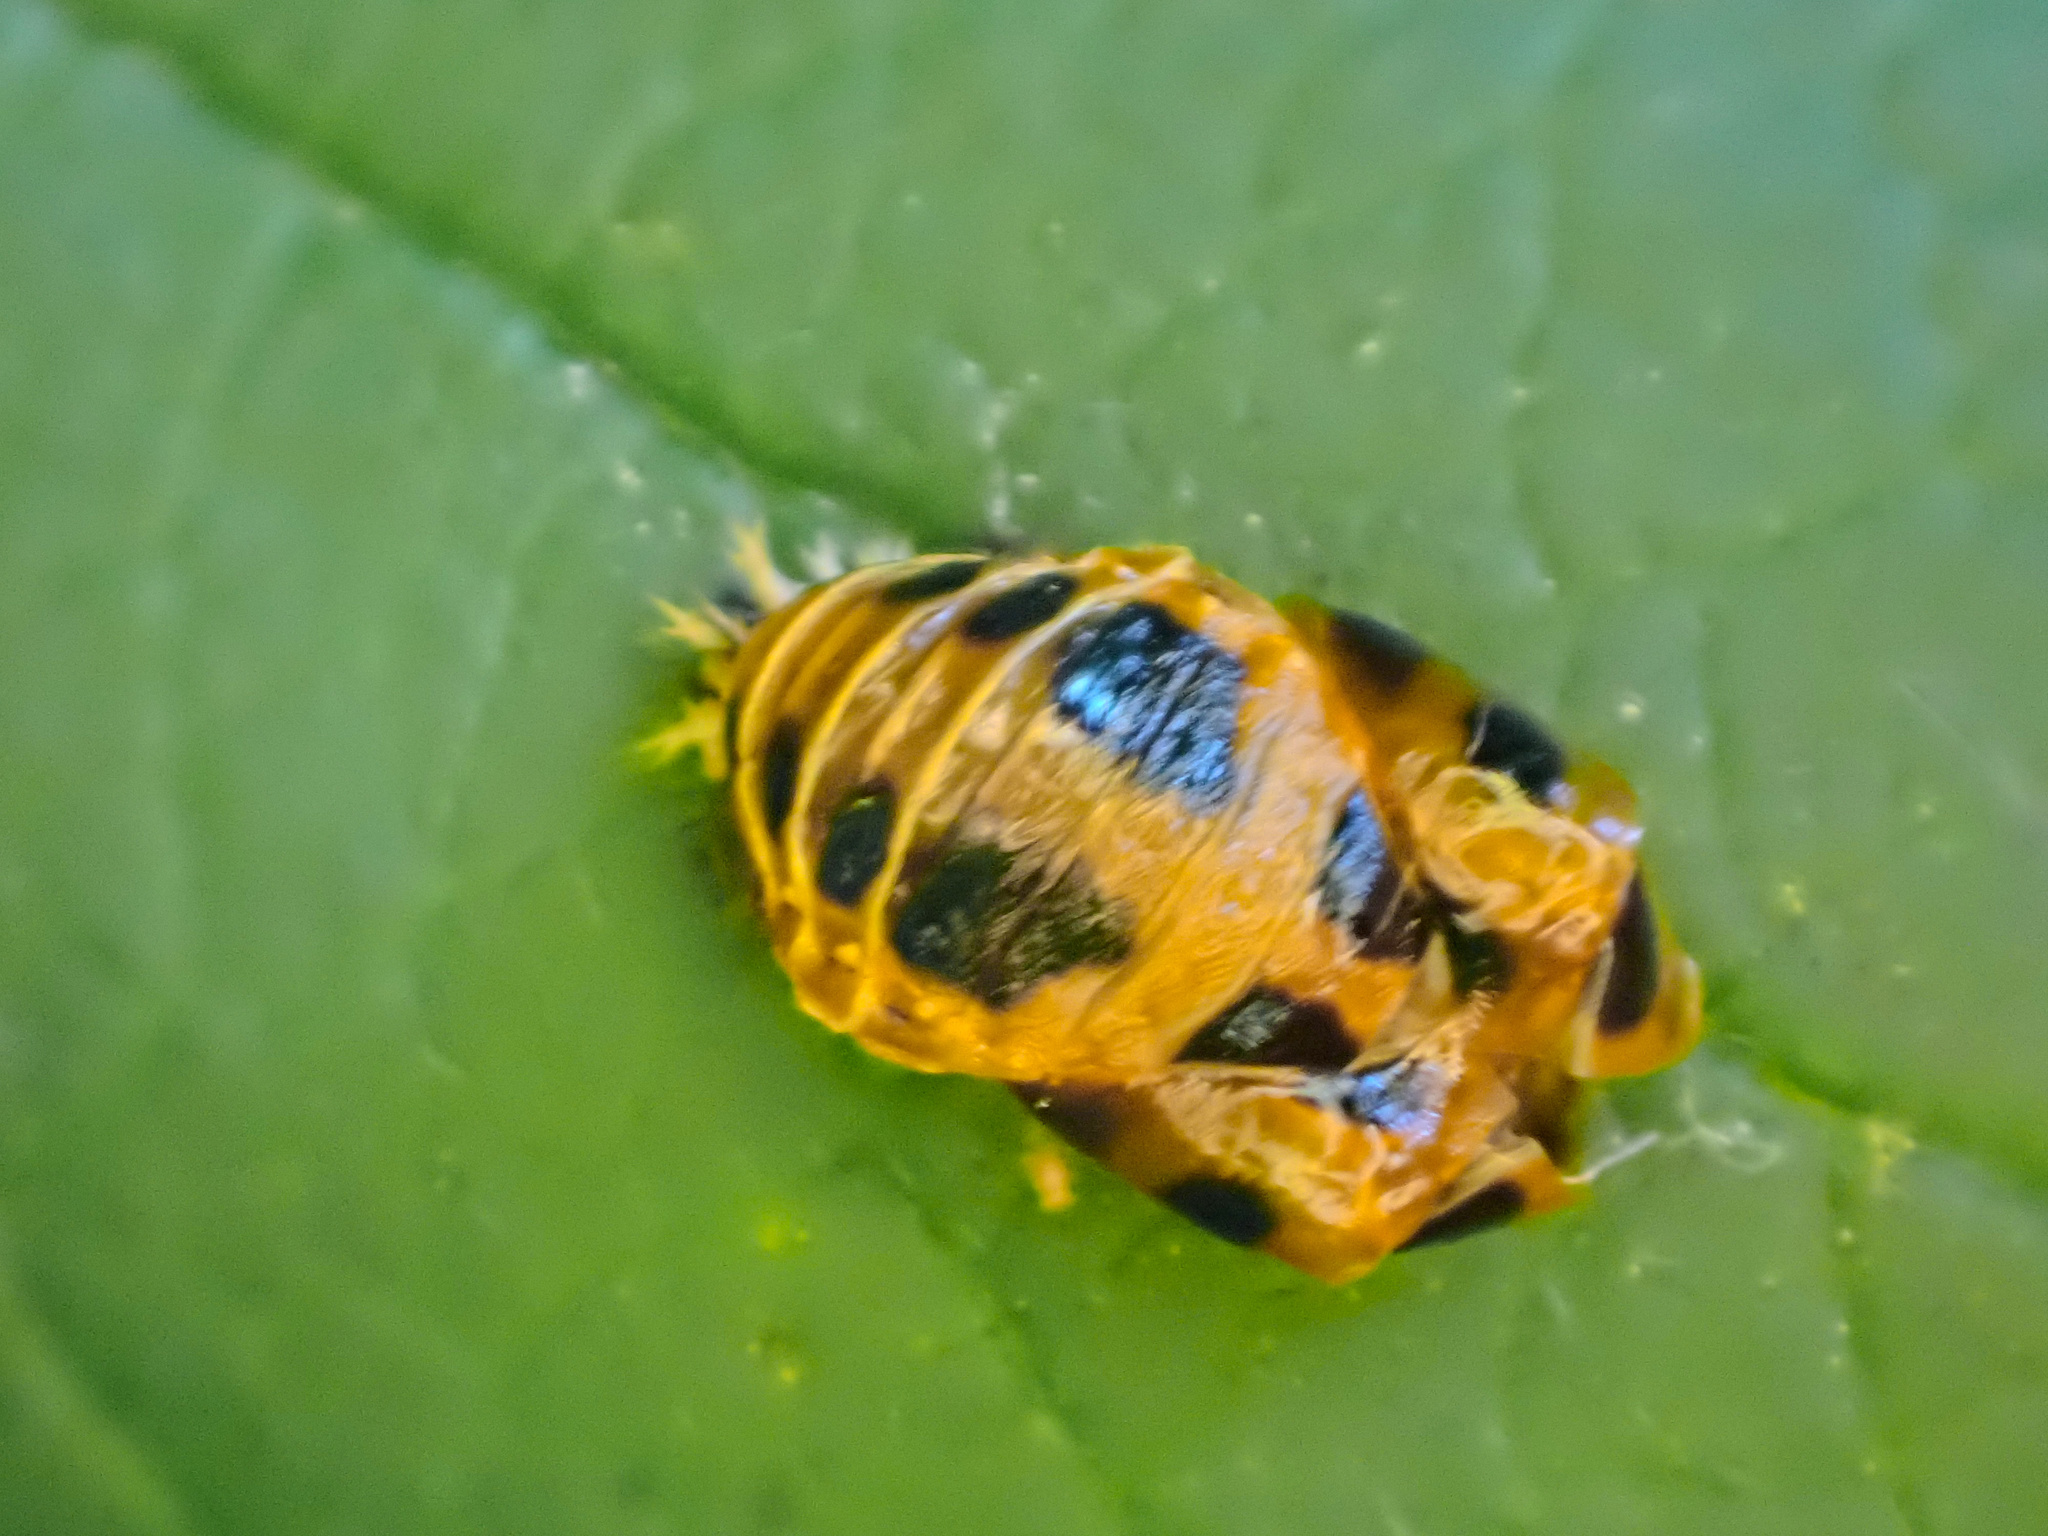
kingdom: Animalia
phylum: Arthropoda
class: Insecta
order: Coleoptera
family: Coccinellidae
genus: Harmonia
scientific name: Harmonia axyridis
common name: Harlequin ladybird
